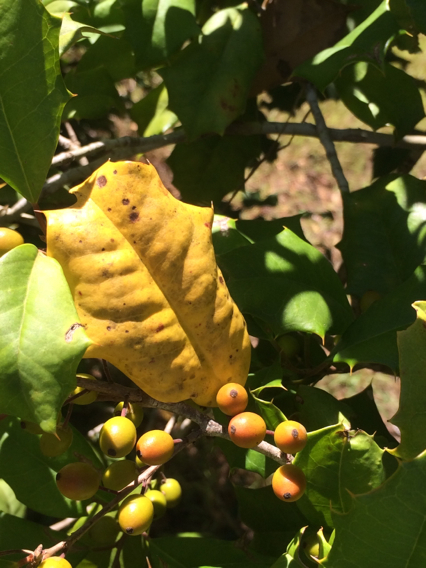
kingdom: Plantae
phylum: Tracheophyta
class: Magnoliopsida
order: Aquifoliales
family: Aquifoliaceae
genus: Ilex
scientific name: Ilex opaca
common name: American holly
